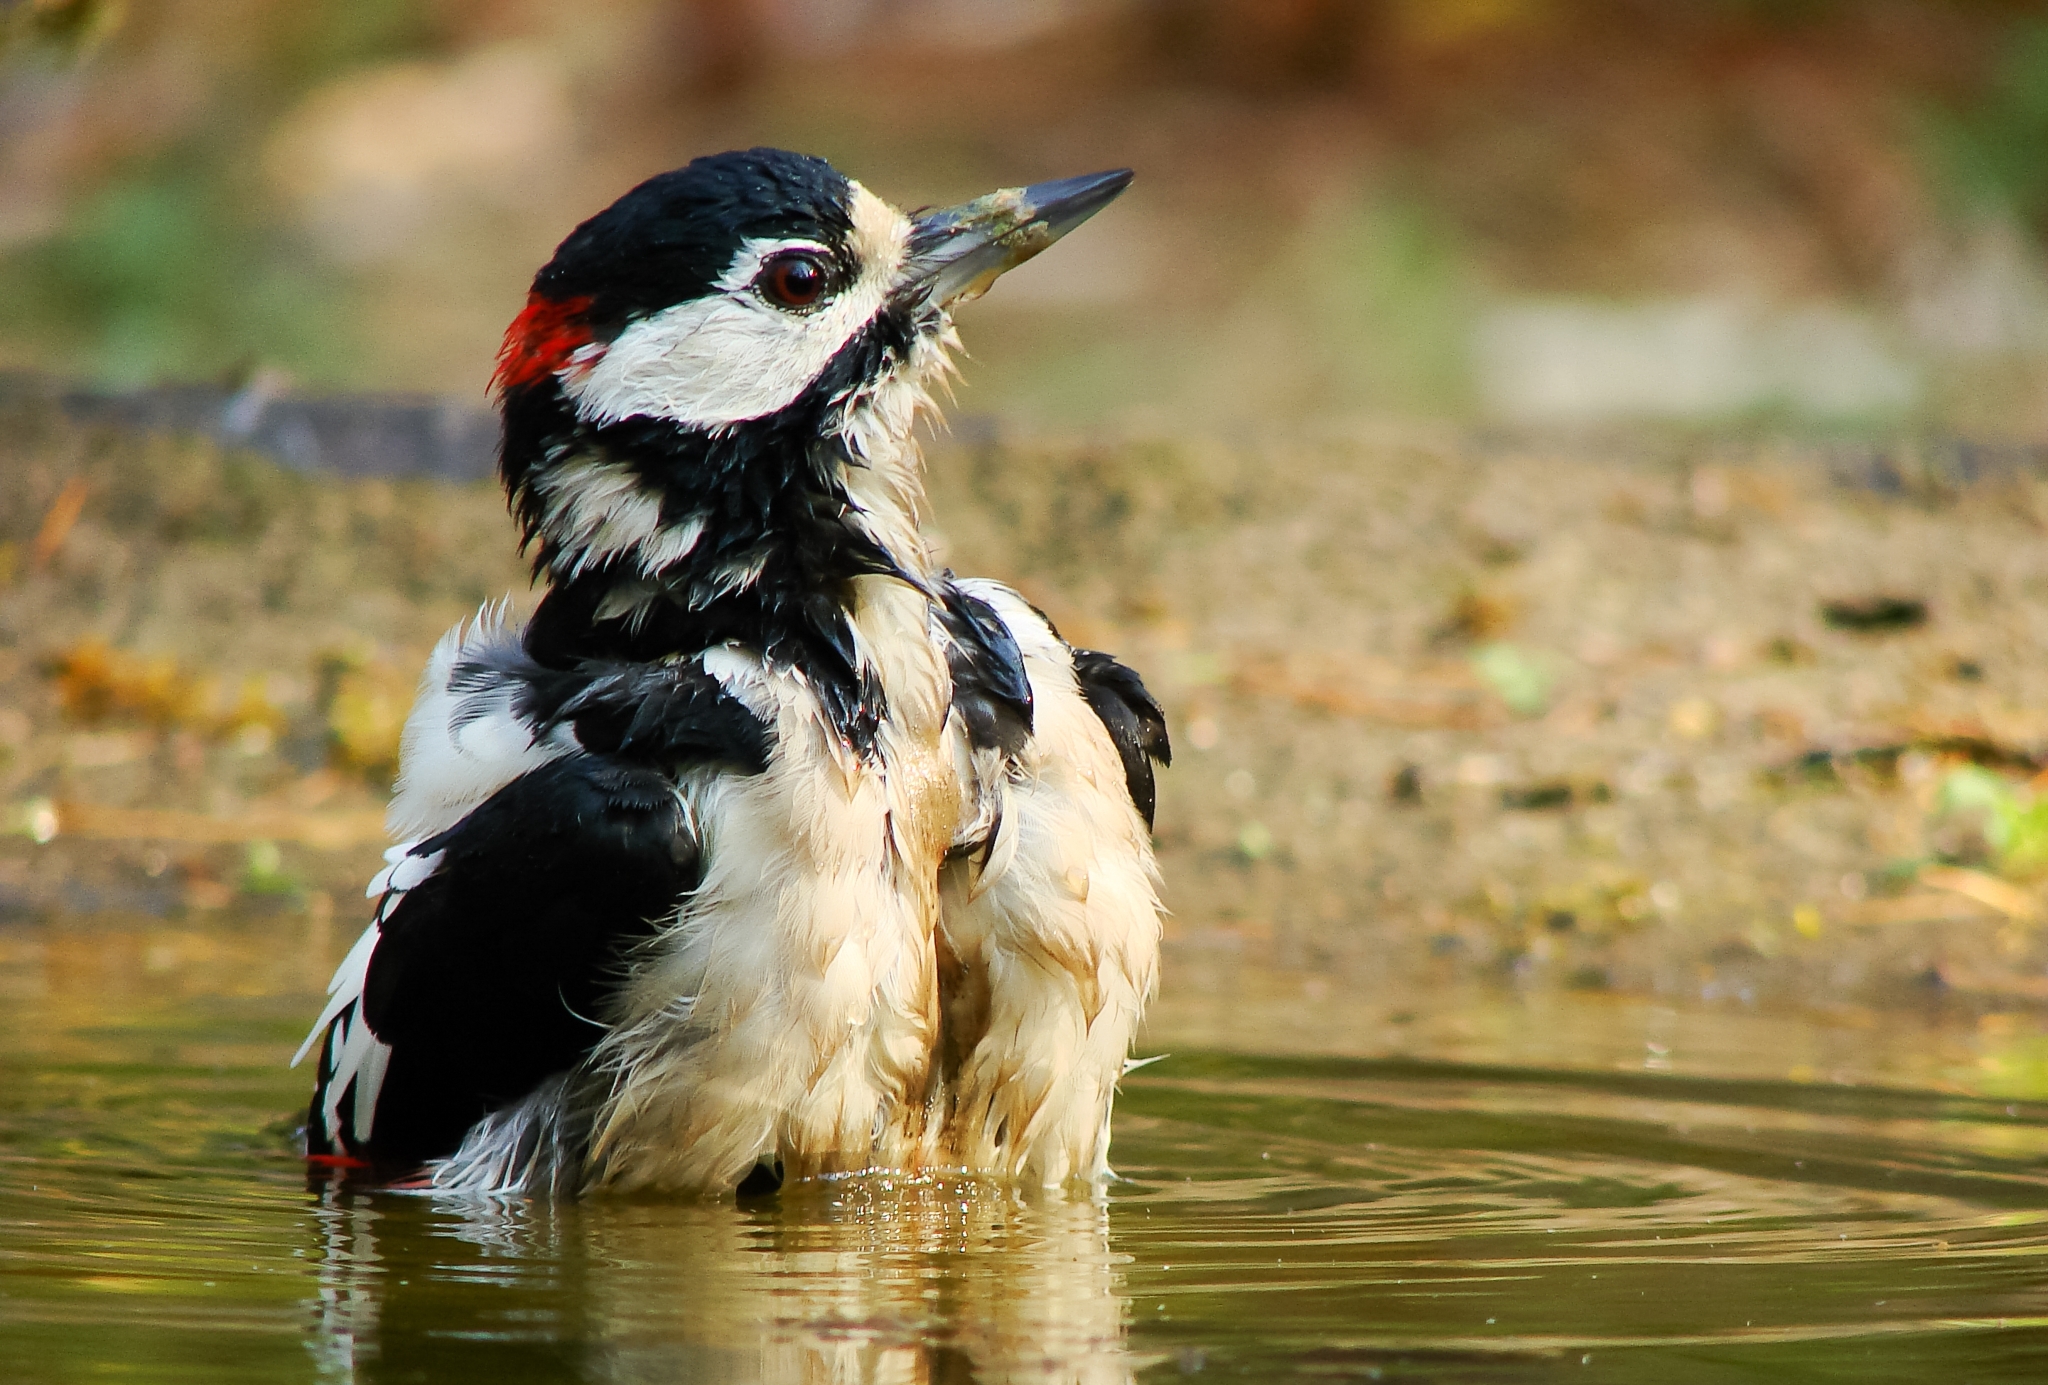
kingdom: Animalia
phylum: Chordata
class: Aves
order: Piciformes
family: Picidae
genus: Dendrocopos
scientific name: Dendrocopos major
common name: Great spotted woodpecker
